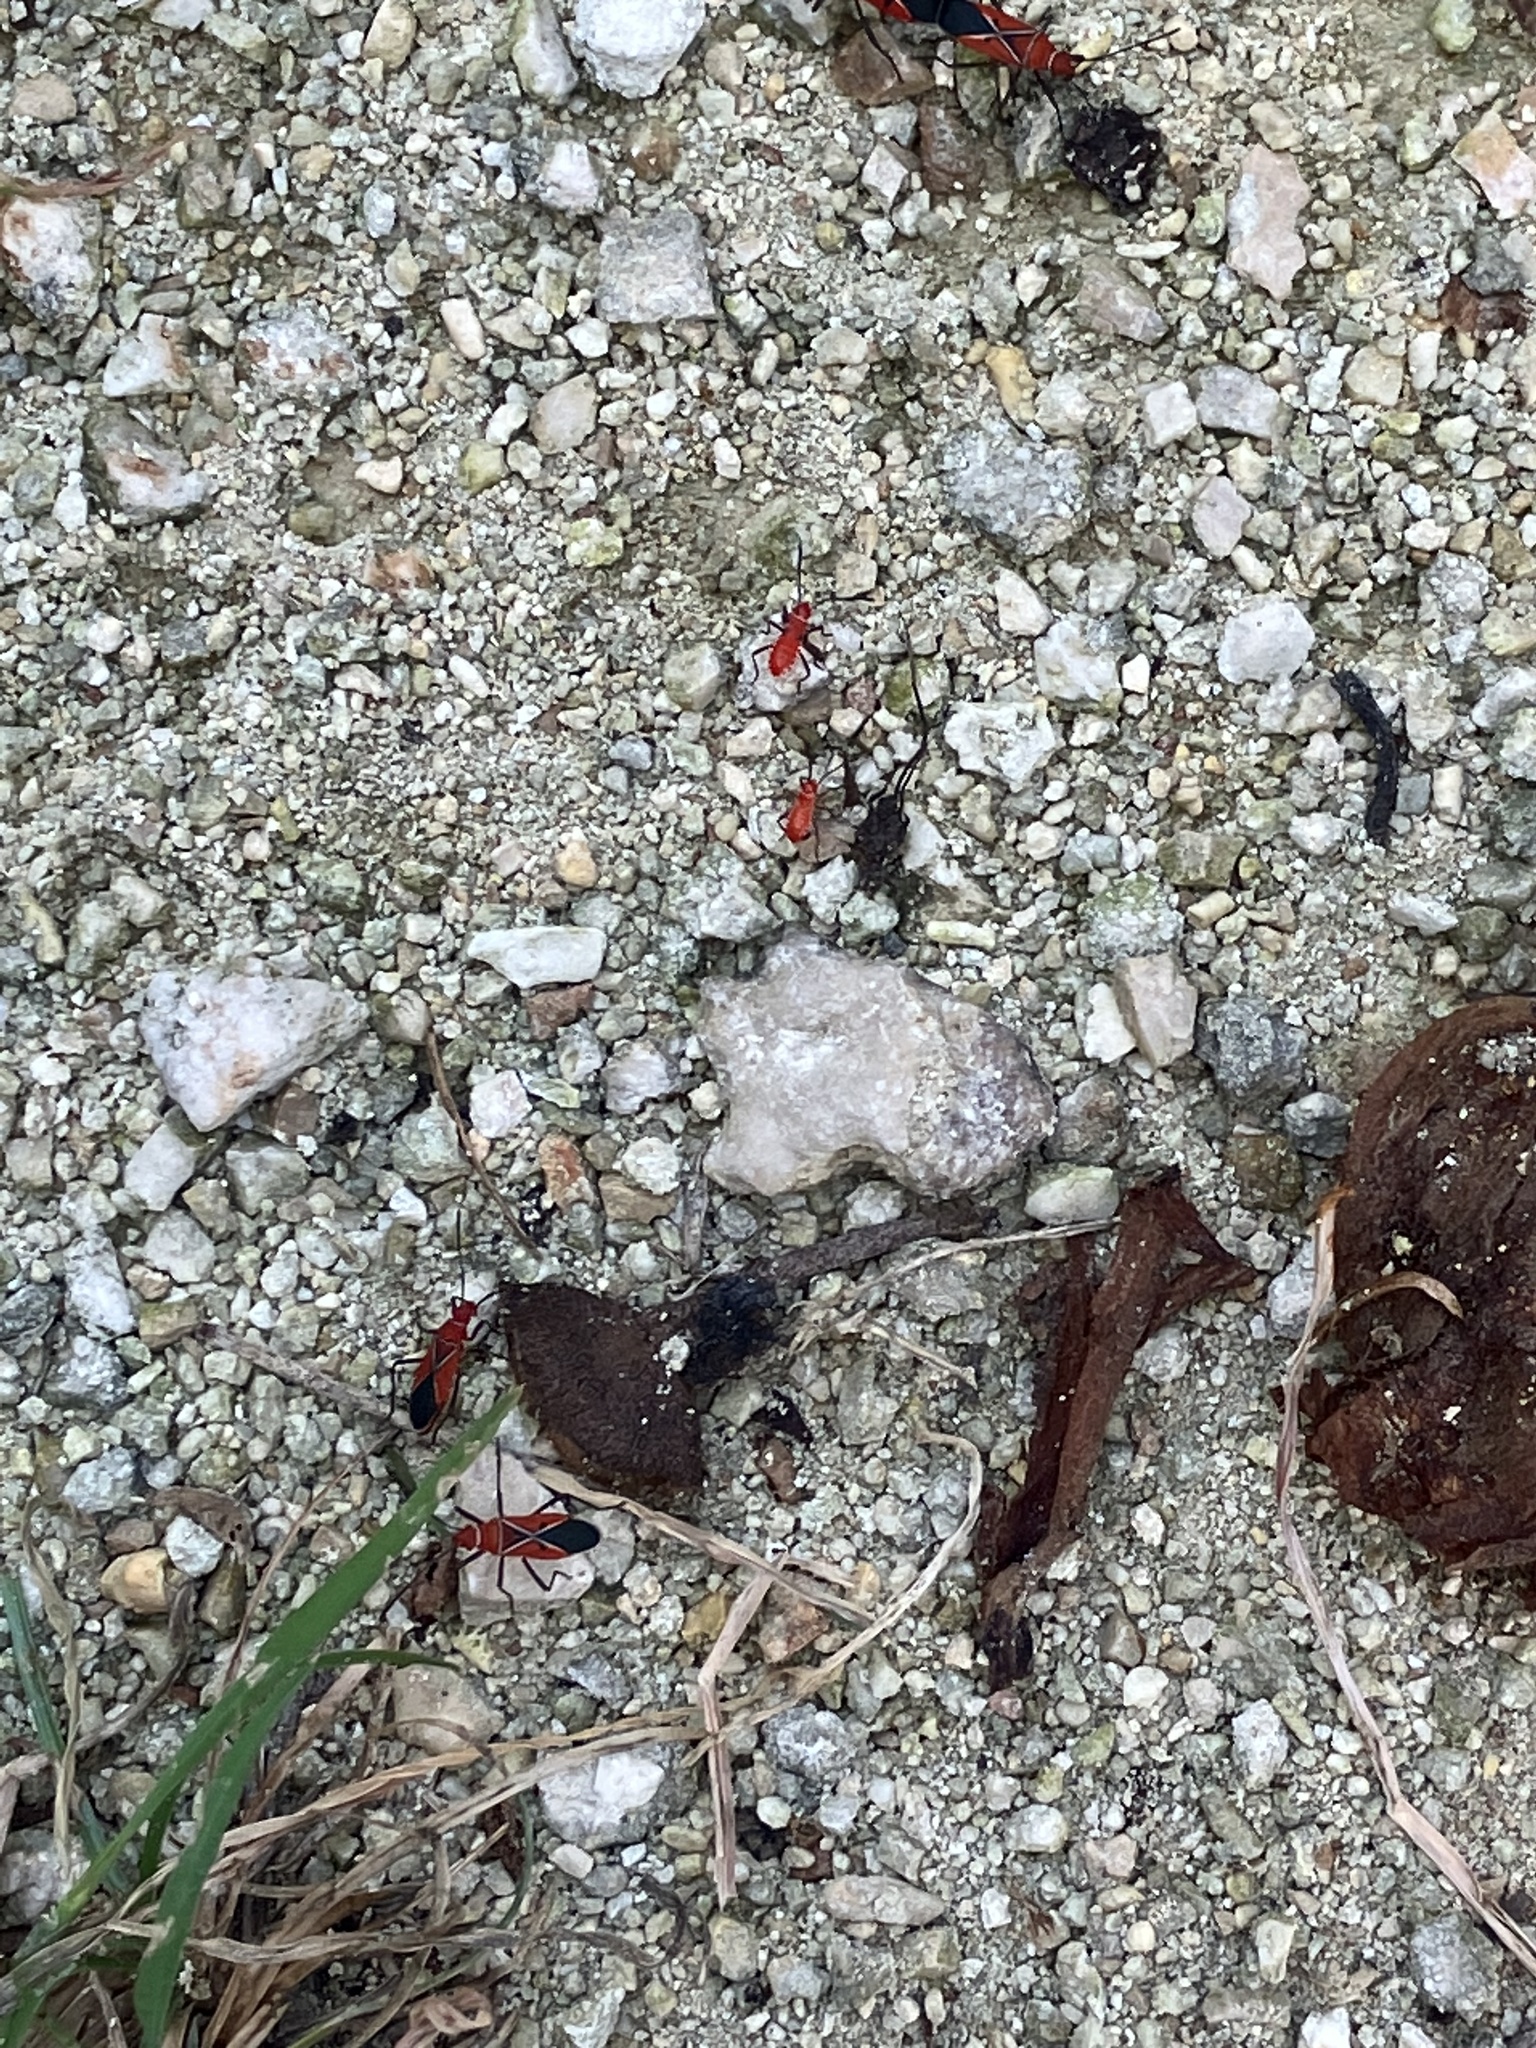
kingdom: Animalia
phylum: Arthropoda
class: Insecta
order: Hemiptera
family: Pyrrhocoridae
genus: Dysdercus
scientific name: Dysdercus andreae
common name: St. andrew's cotton stainer
